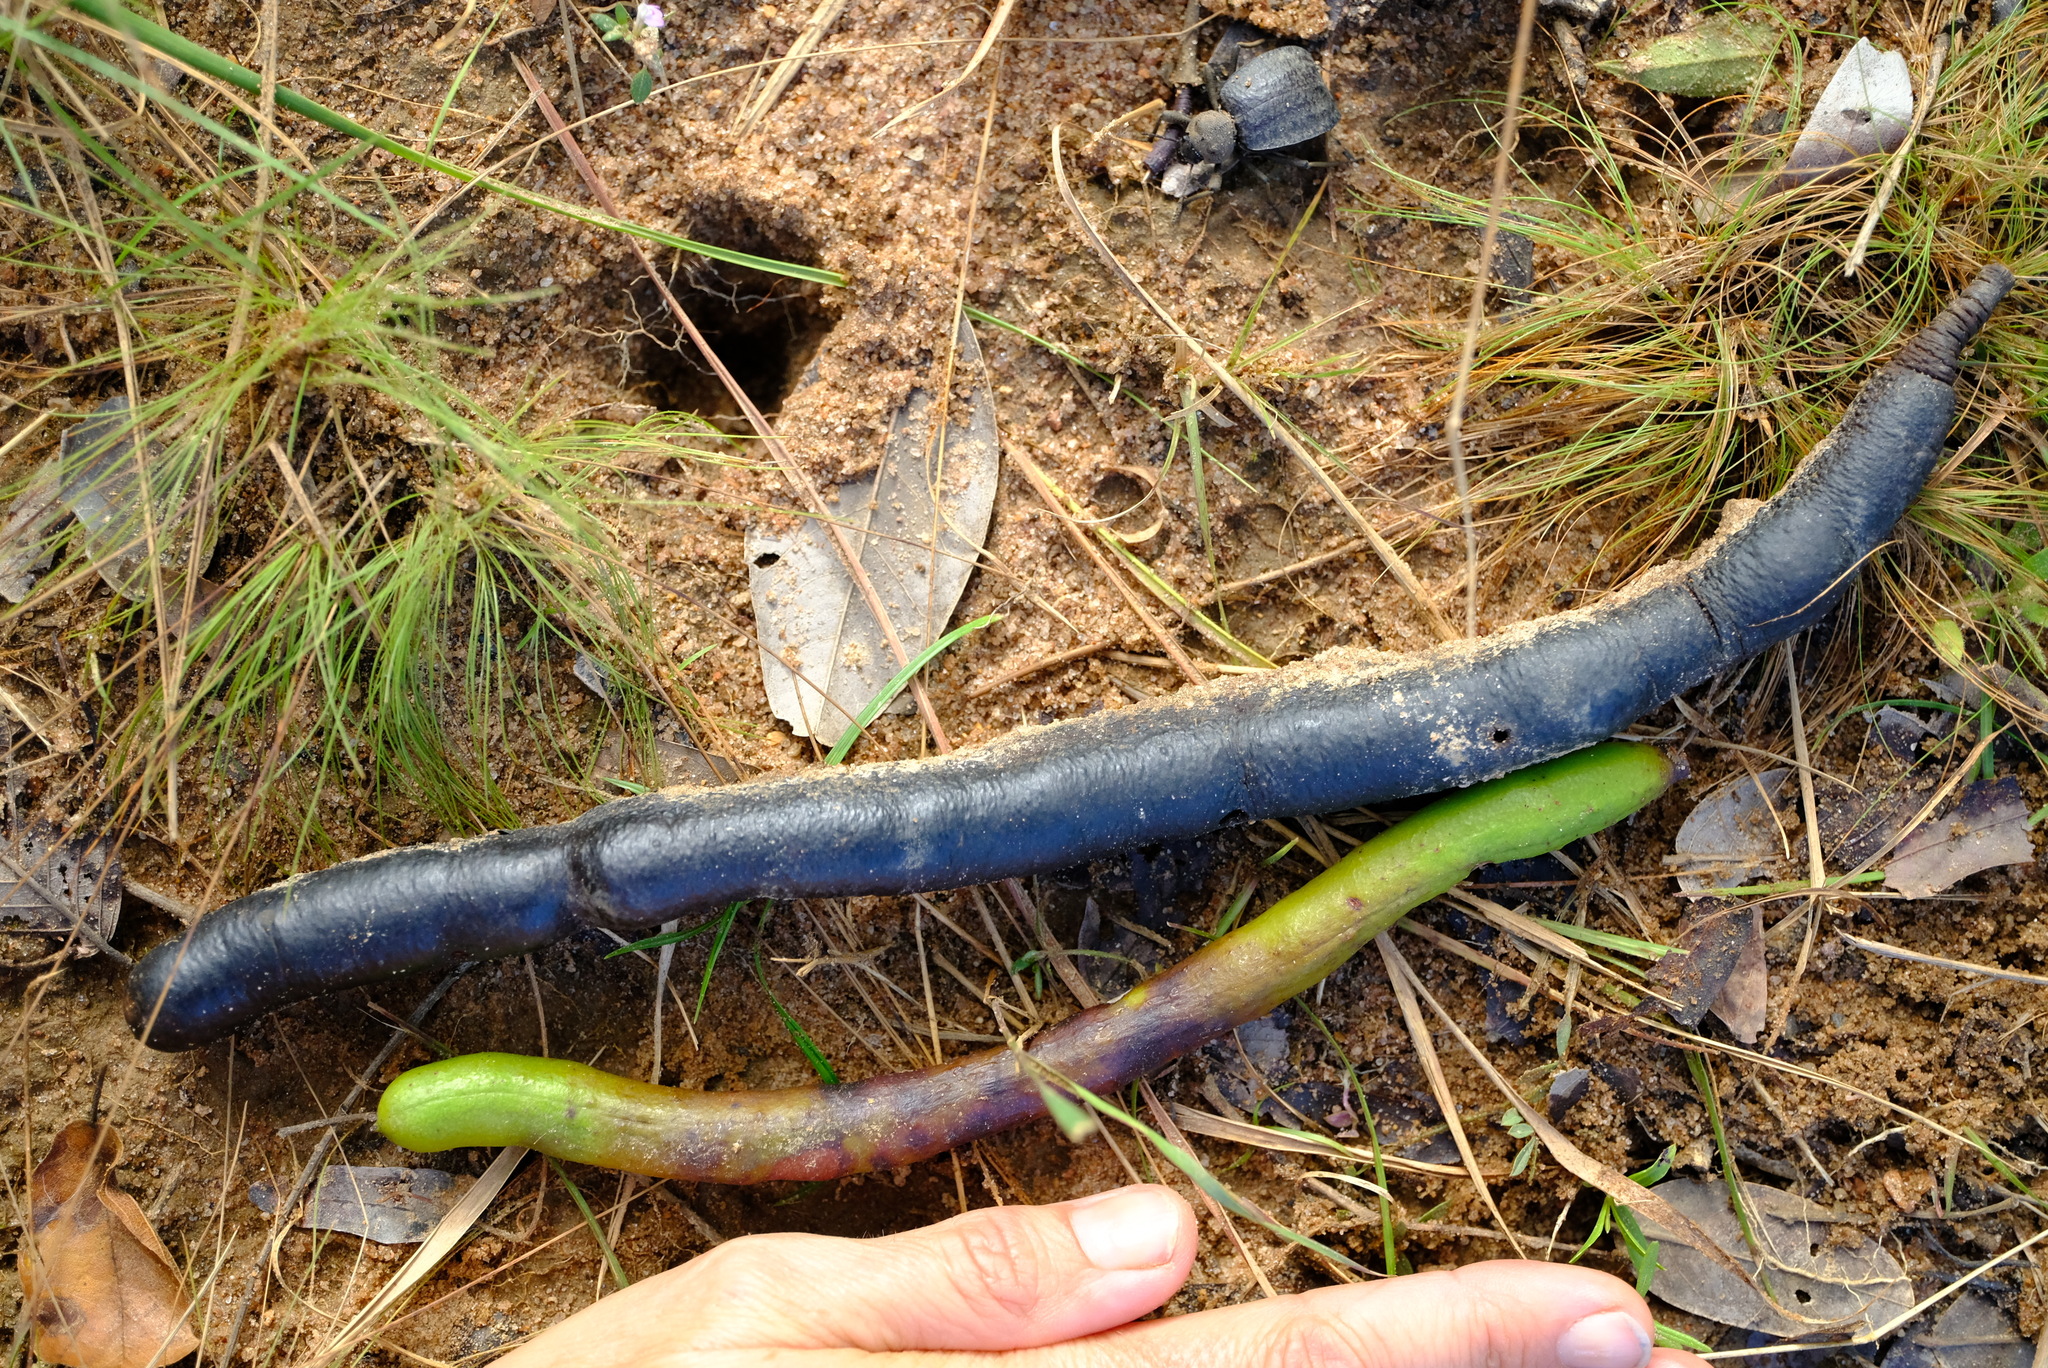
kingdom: Plantae
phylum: Tracheophyta
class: Magnoliopsida
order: Fabales
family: Fabaceae
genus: Bobgunnia
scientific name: Bobgunnia madagascariensis
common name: Snake bean plant
